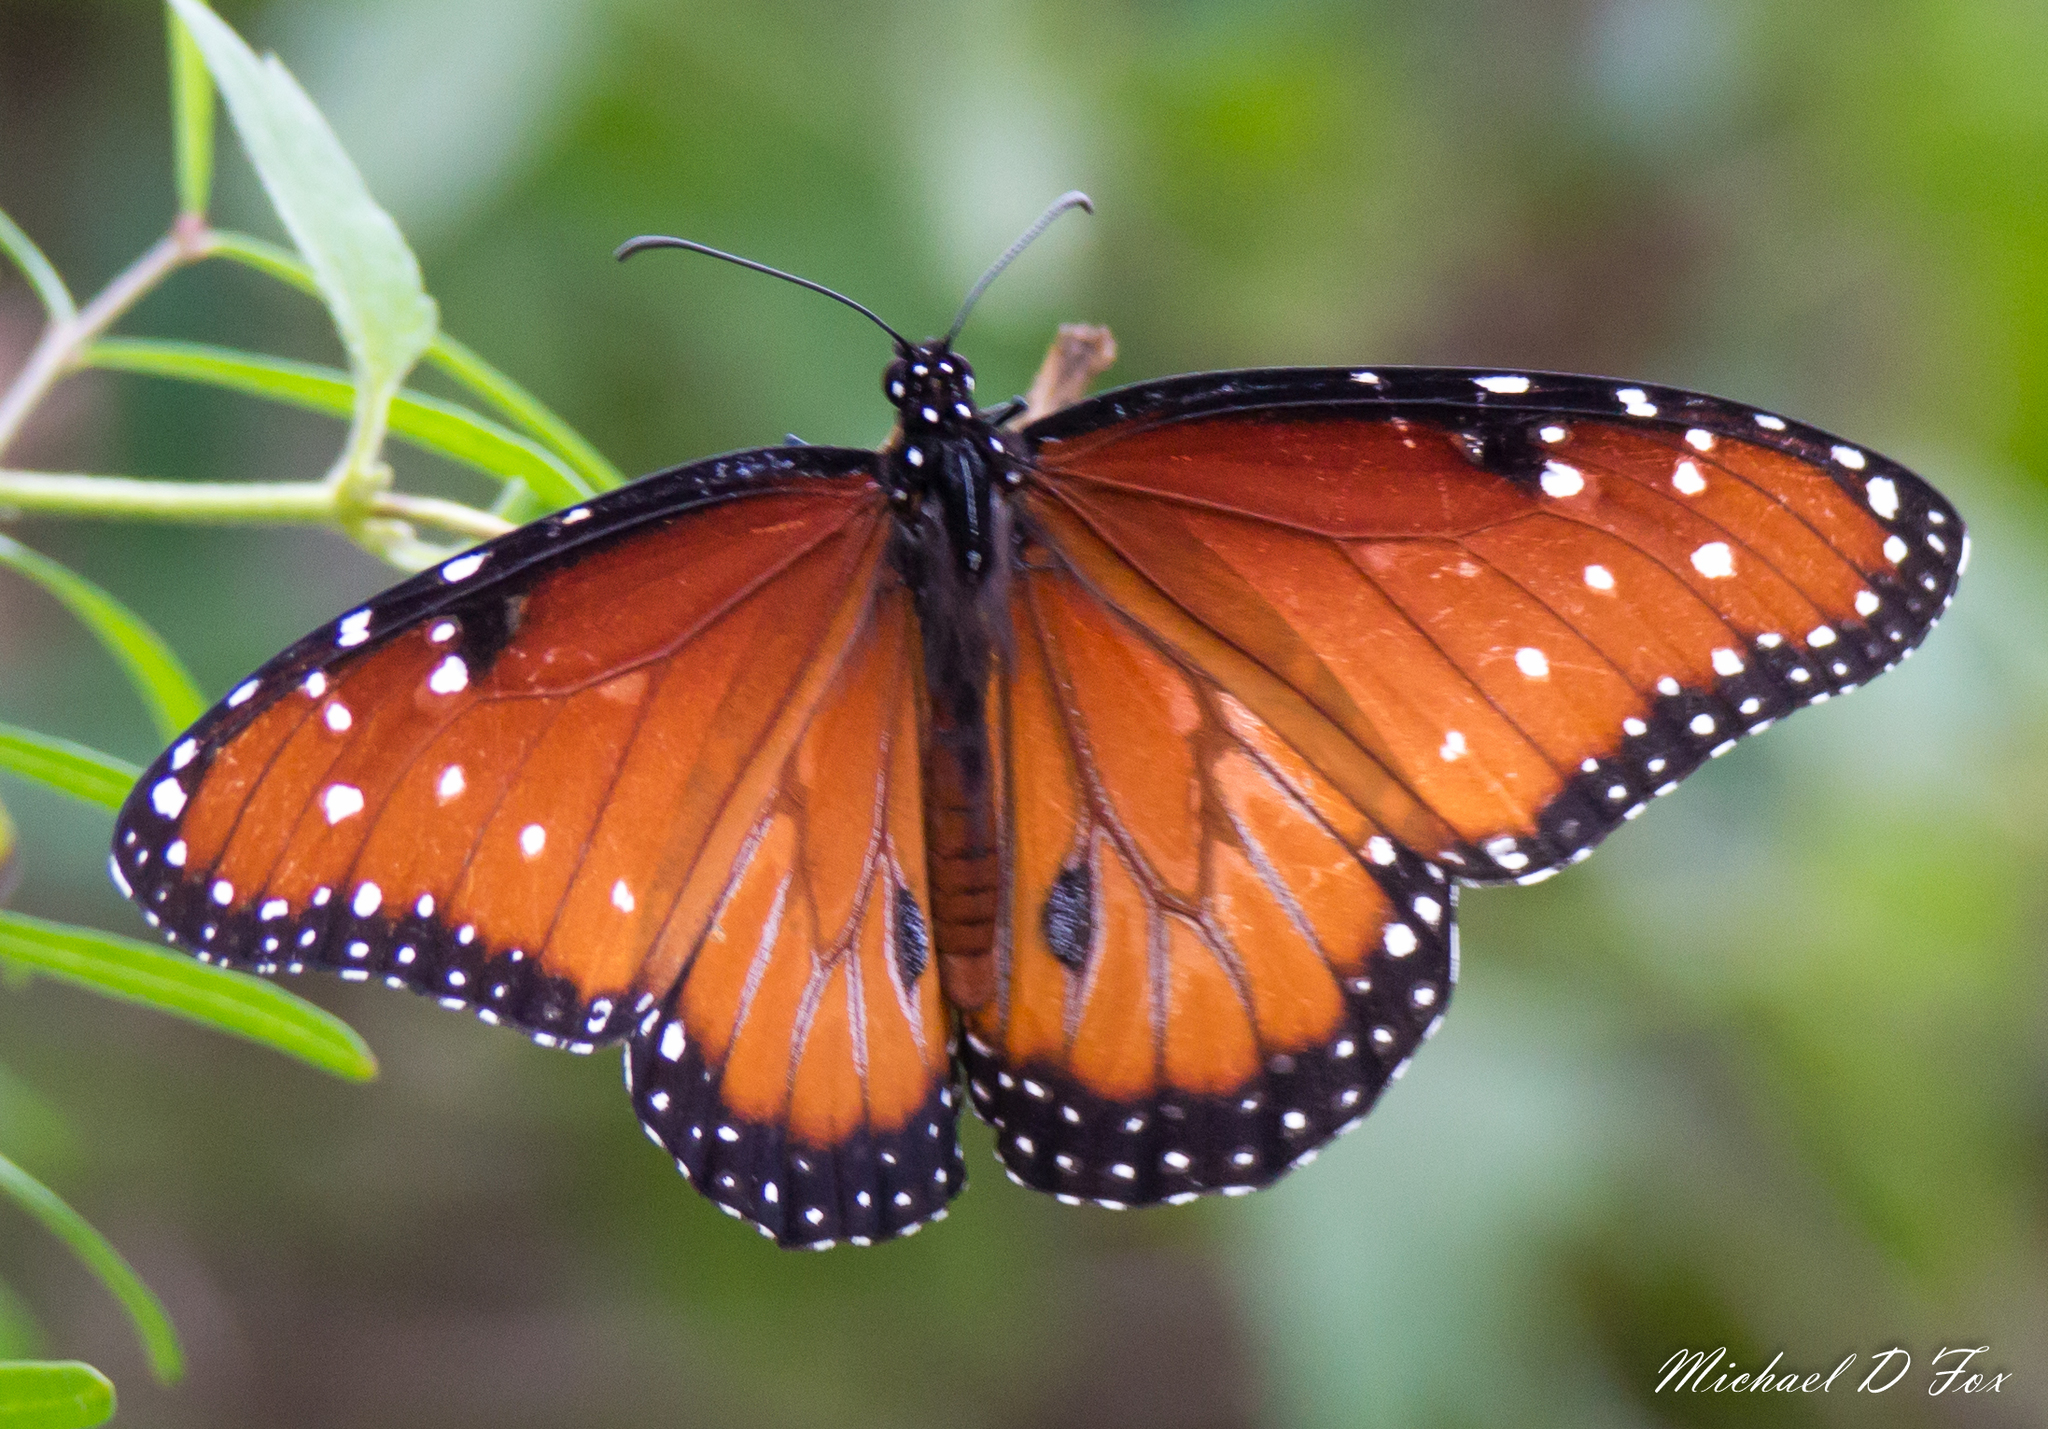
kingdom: Animalia
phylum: Arthropoda
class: Insecta
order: Lepidoptera
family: Nymphalidae
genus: Danaus
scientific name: Danaus gilippus
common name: Queen
